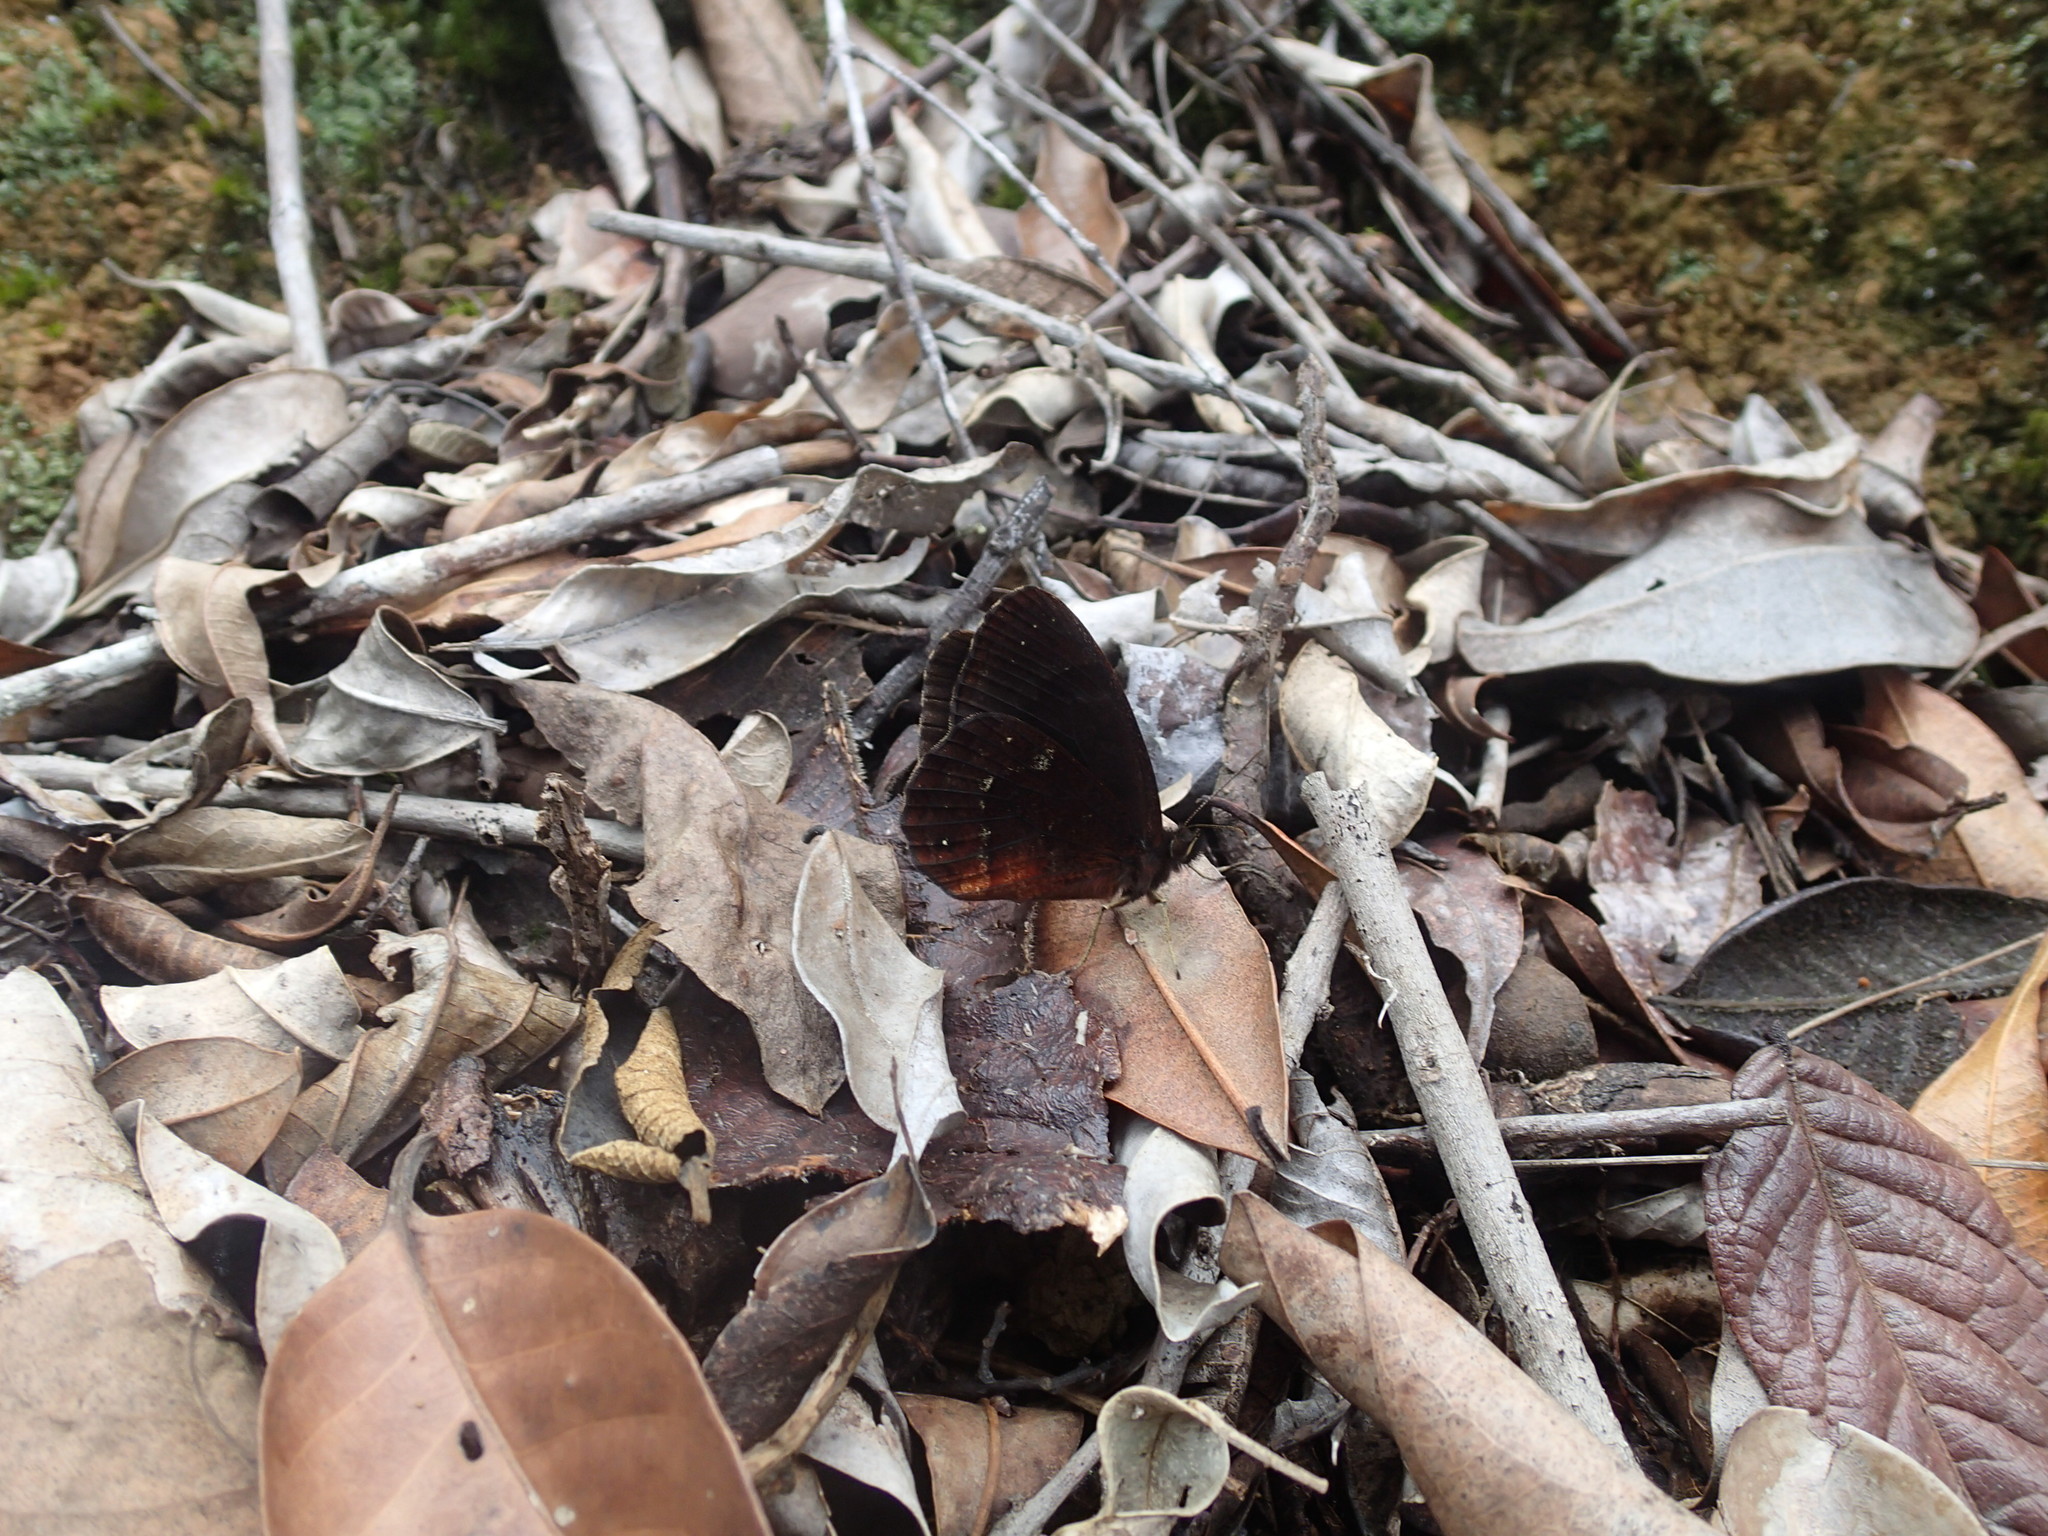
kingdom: Animalia
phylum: Arthropoda
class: Insecta
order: Lepidoptera
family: Nymphalidae
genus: Pedaliodes
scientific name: Pedaliodes montagna
